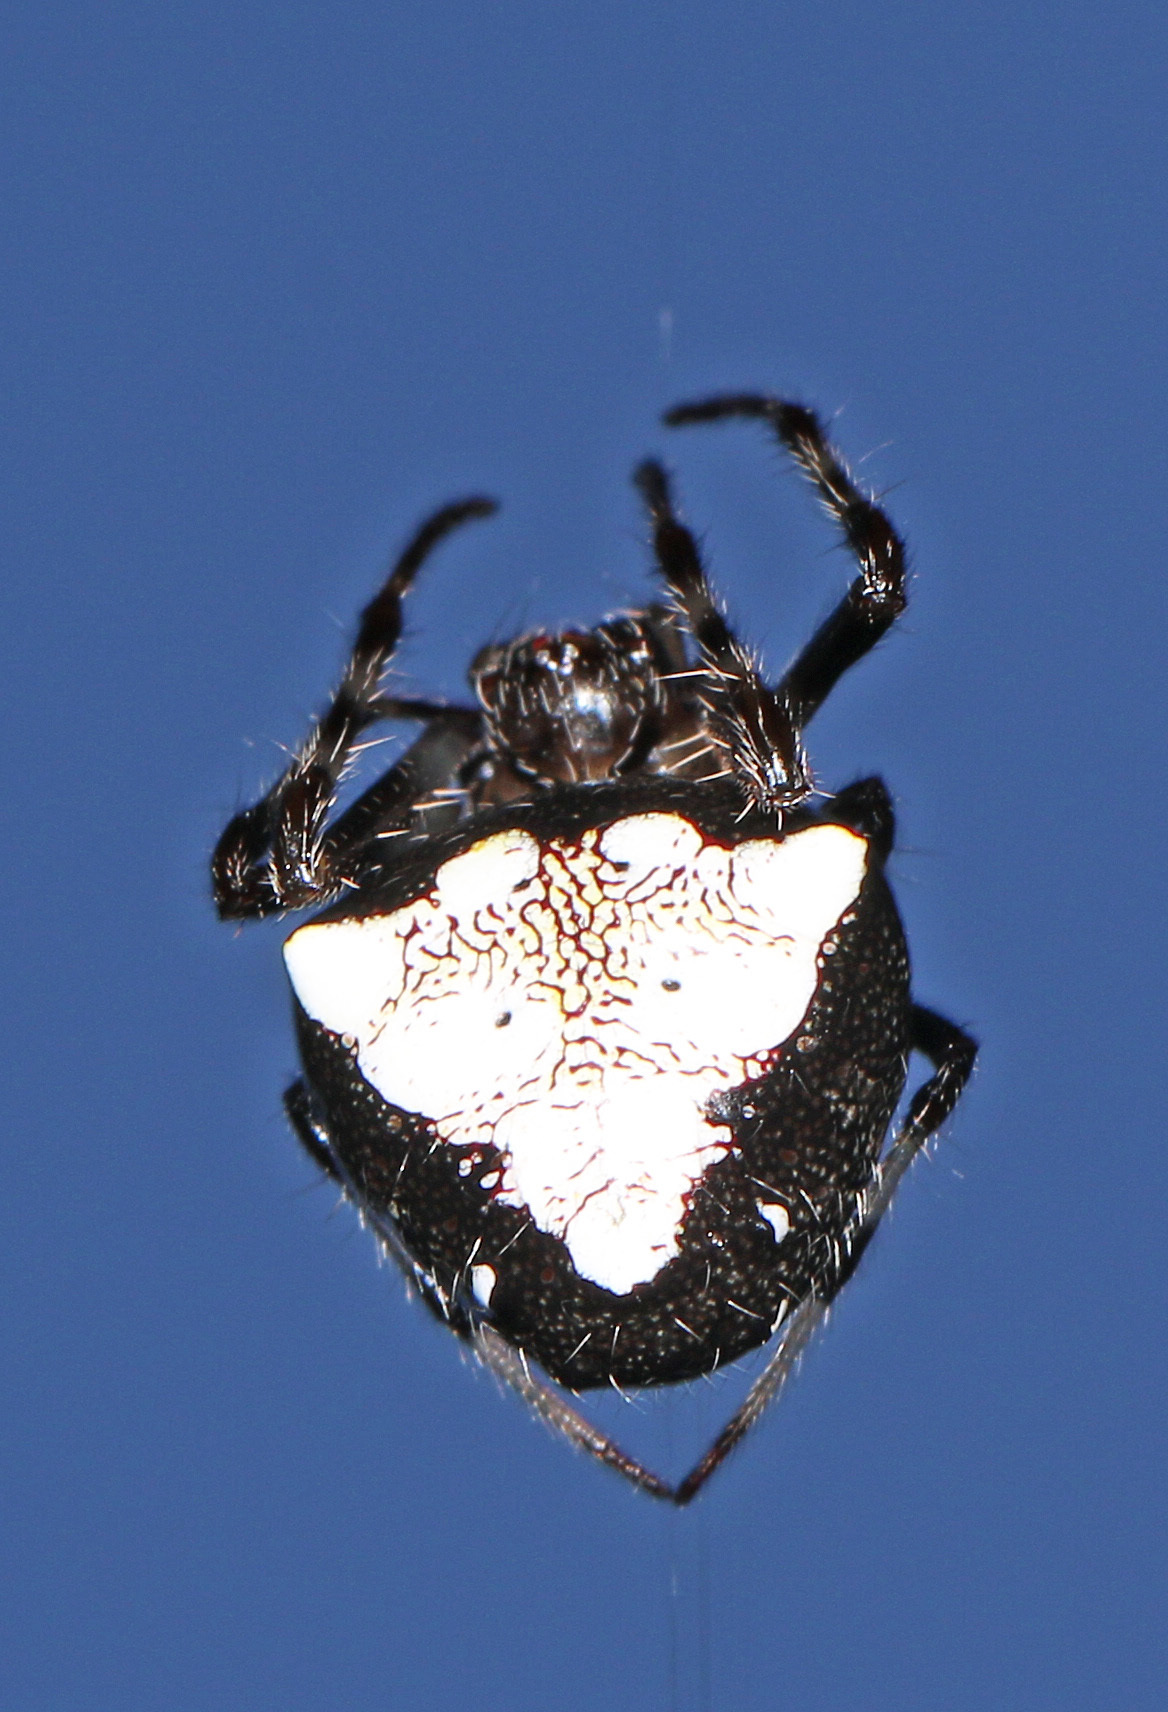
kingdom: Animalia
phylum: Arthropoda
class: Arachnida
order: Araneae
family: Araneidae
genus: Verrucosa
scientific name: Verrucosa arenata
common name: Orb weavers
